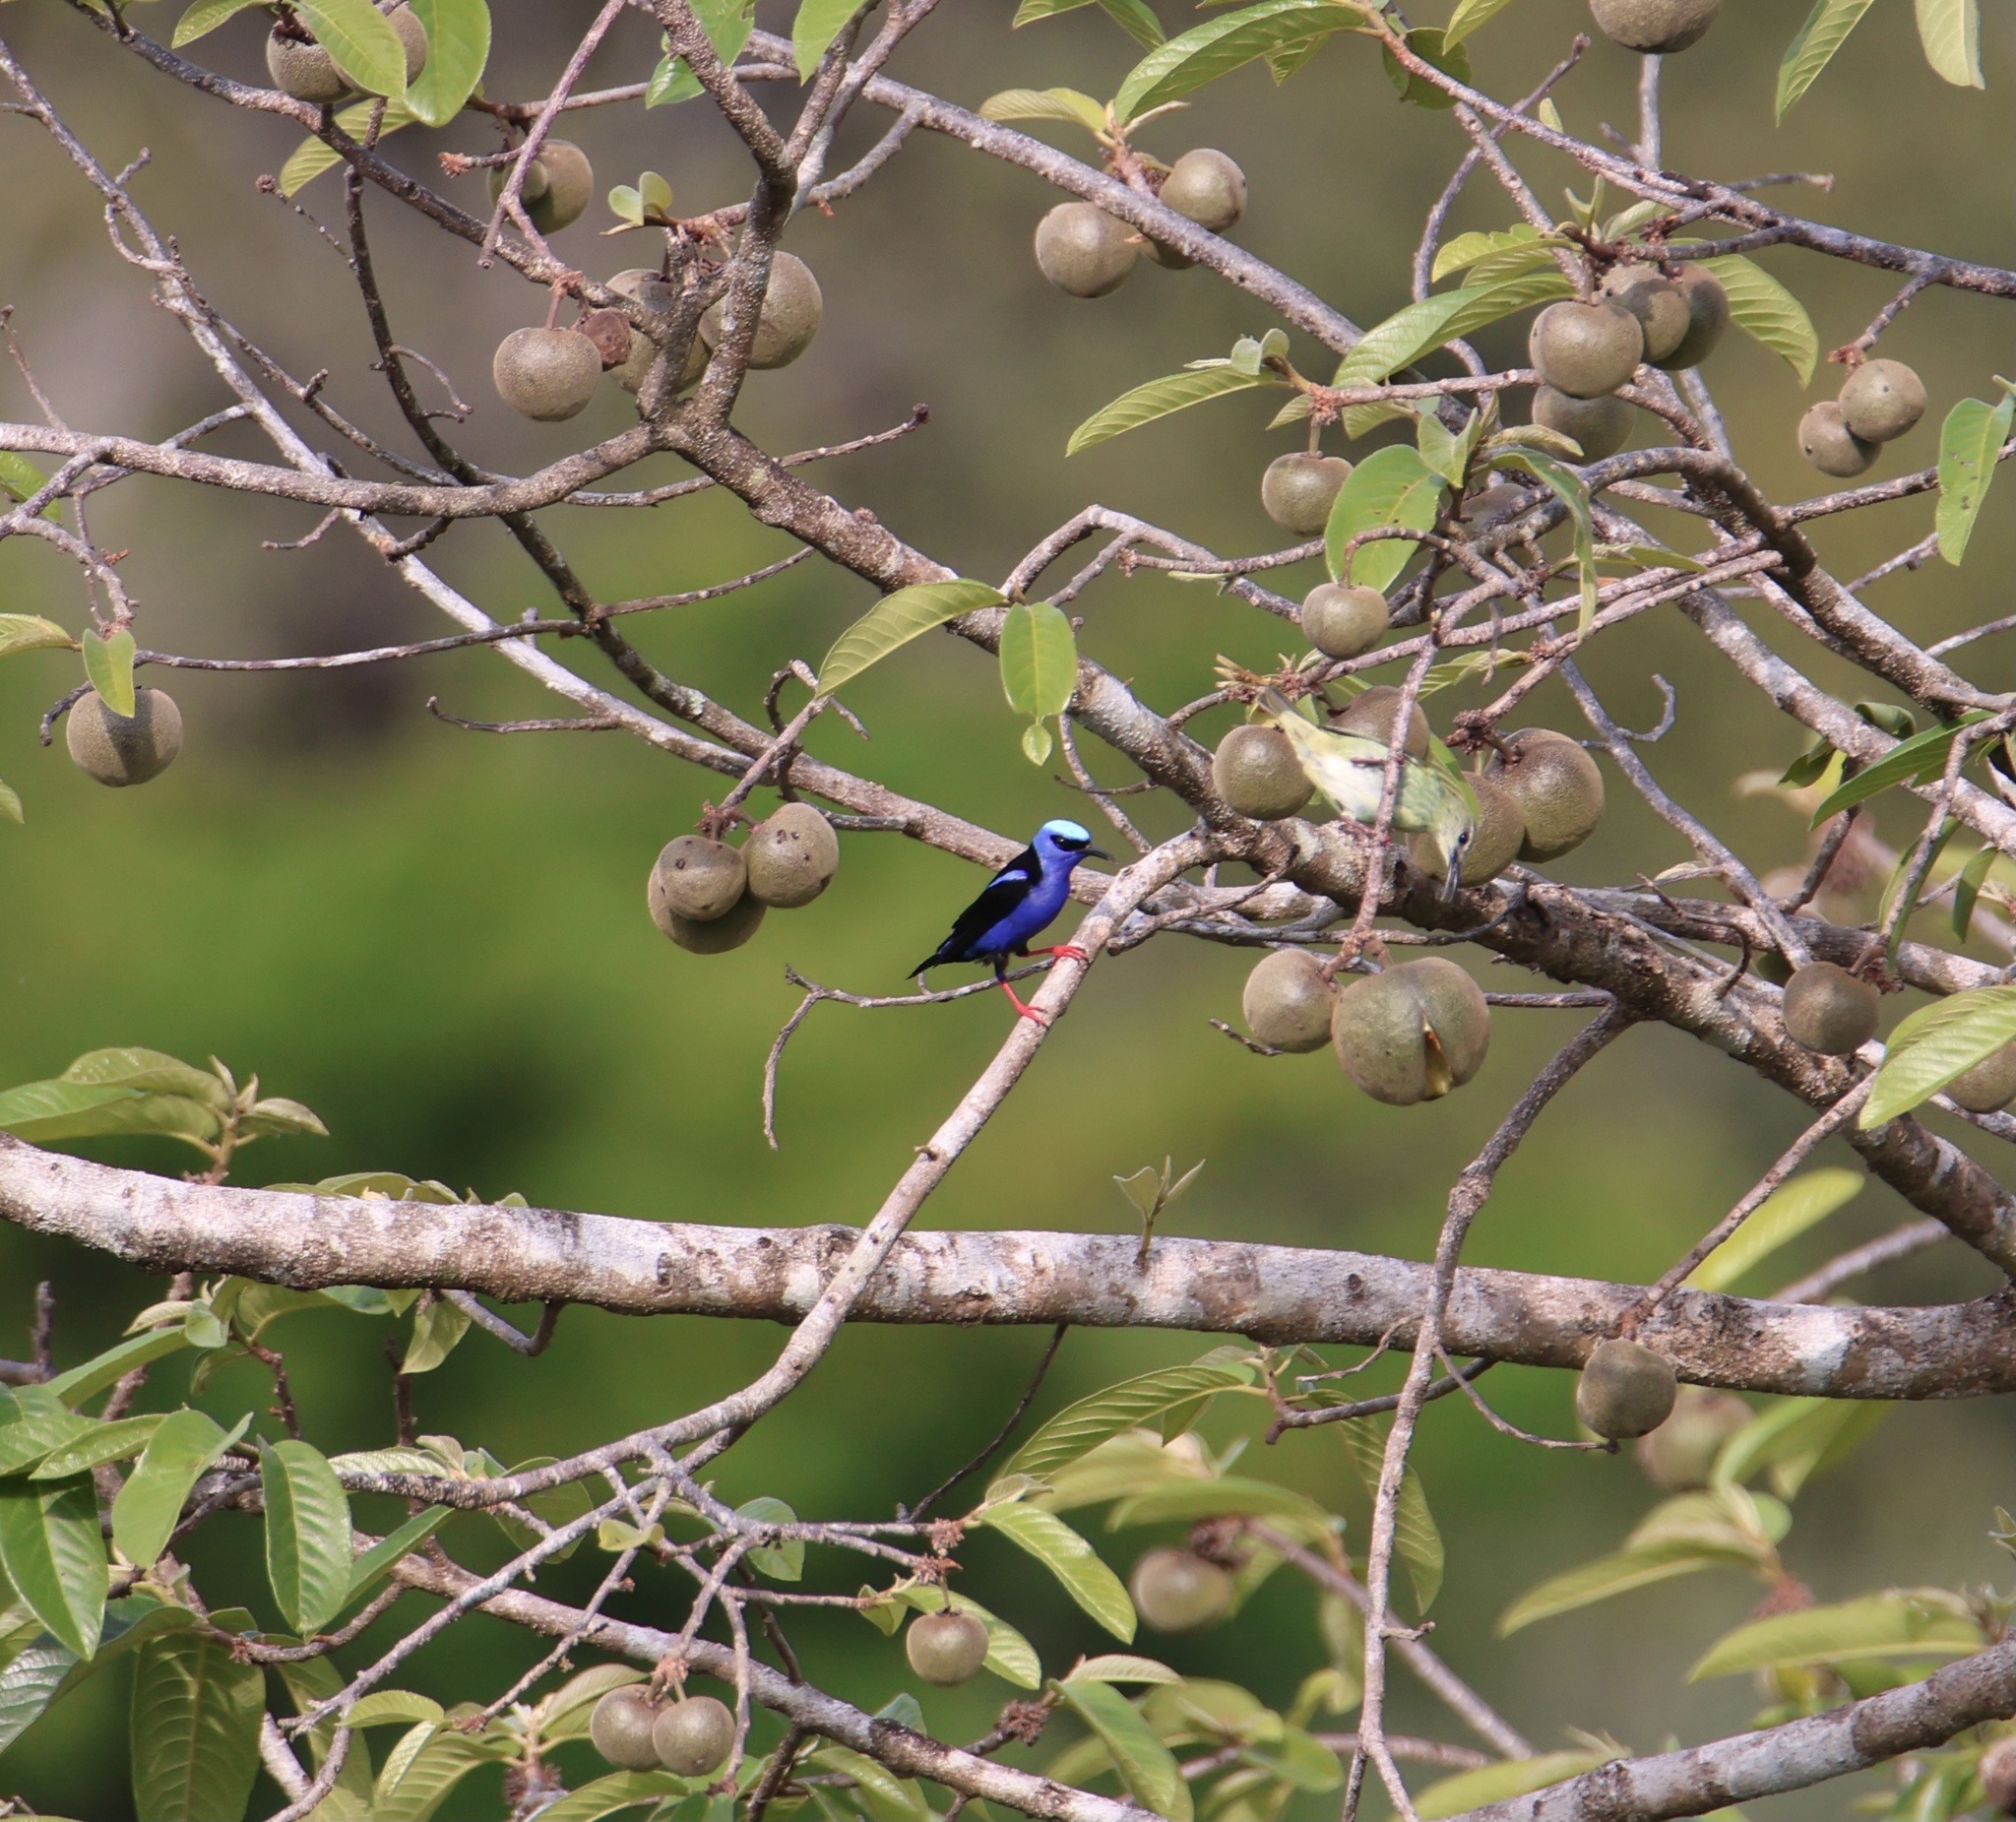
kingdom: Animalia
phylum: Chordata
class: Aves
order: Passeriformes
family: Thraupidae
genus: Cyanerpes
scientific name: Cyanerpes cyaneus
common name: Red-legged honeycreeper
